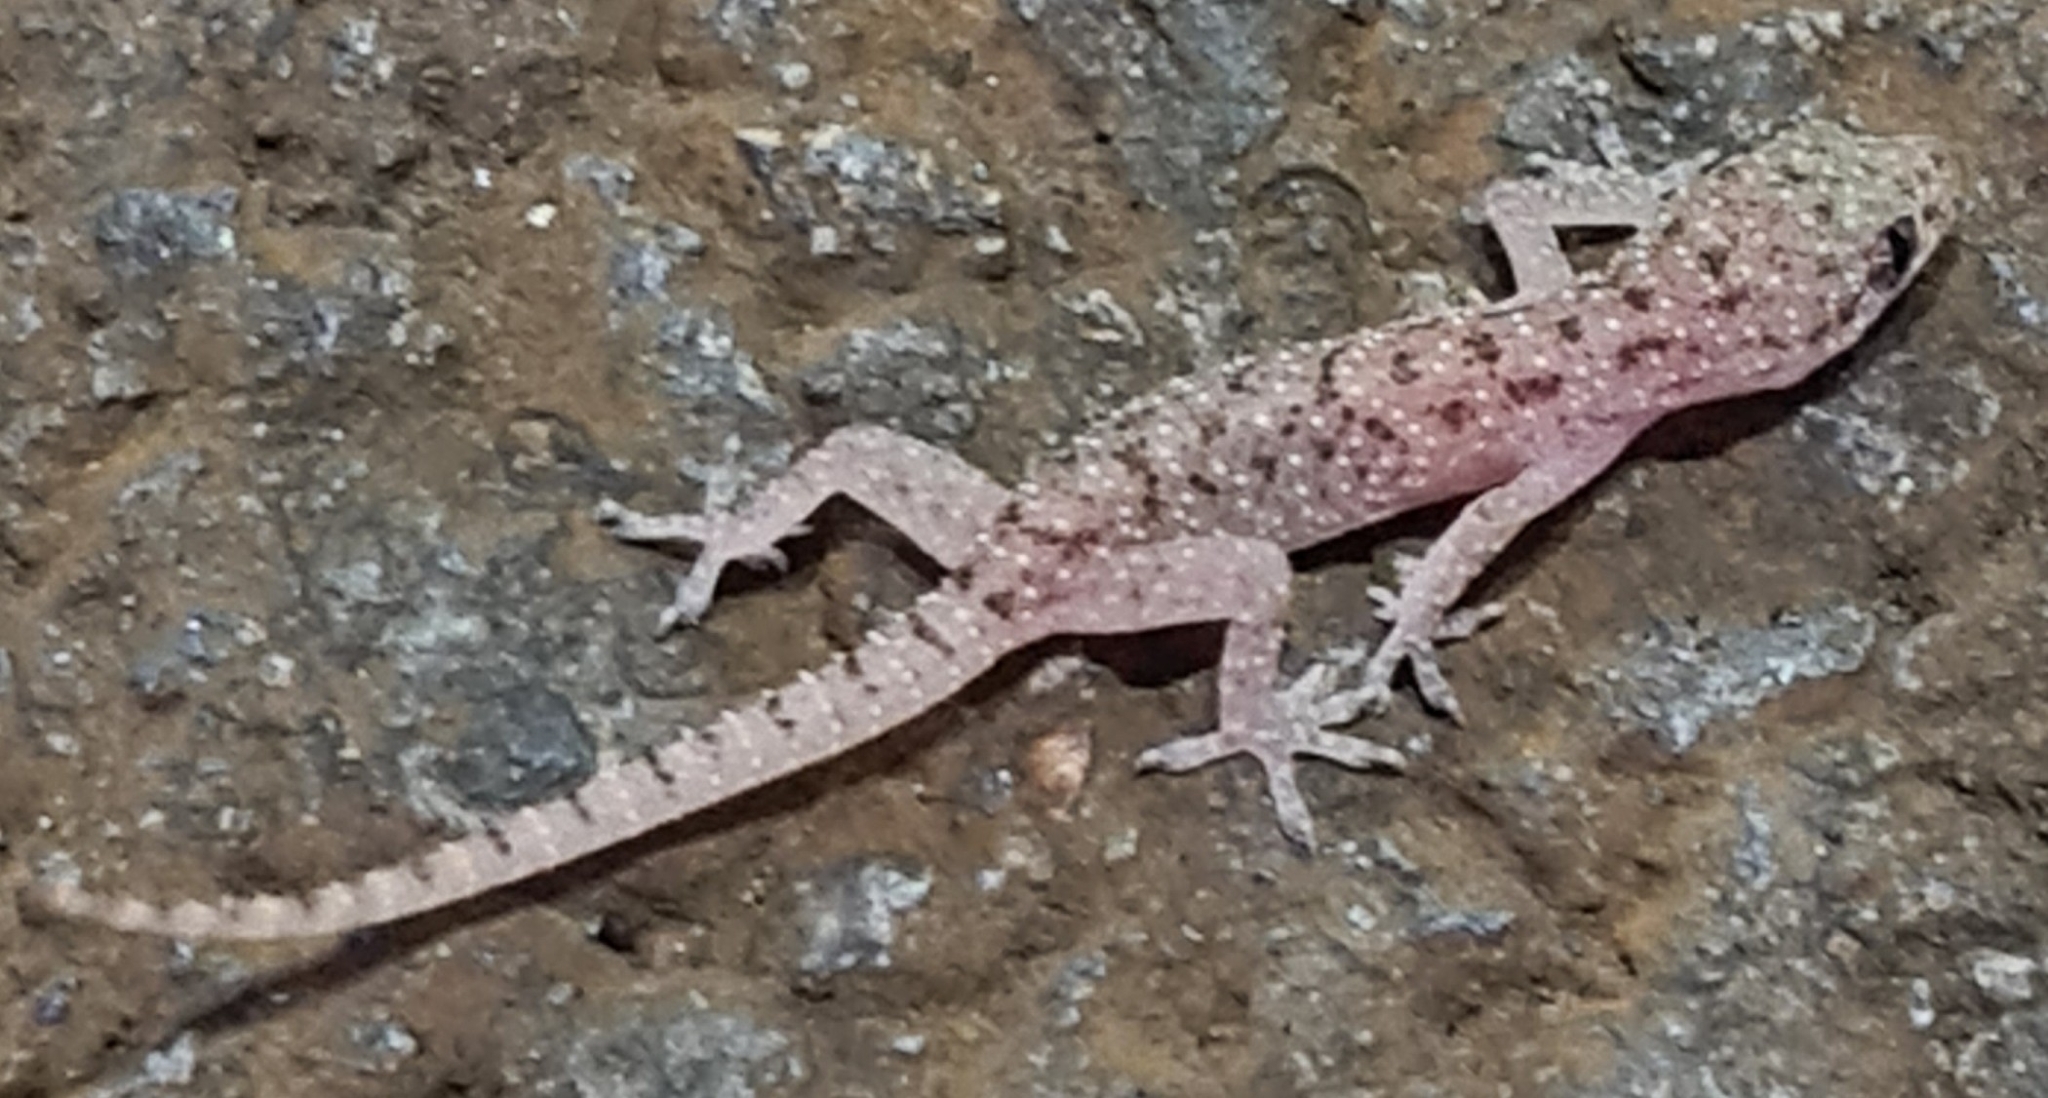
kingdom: Animalia
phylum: Chordata
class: Squamata
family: Gekkonidae
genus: Hemidactylus
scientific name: Hemidactylus parvimaculatus
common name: Spotted house gecko
